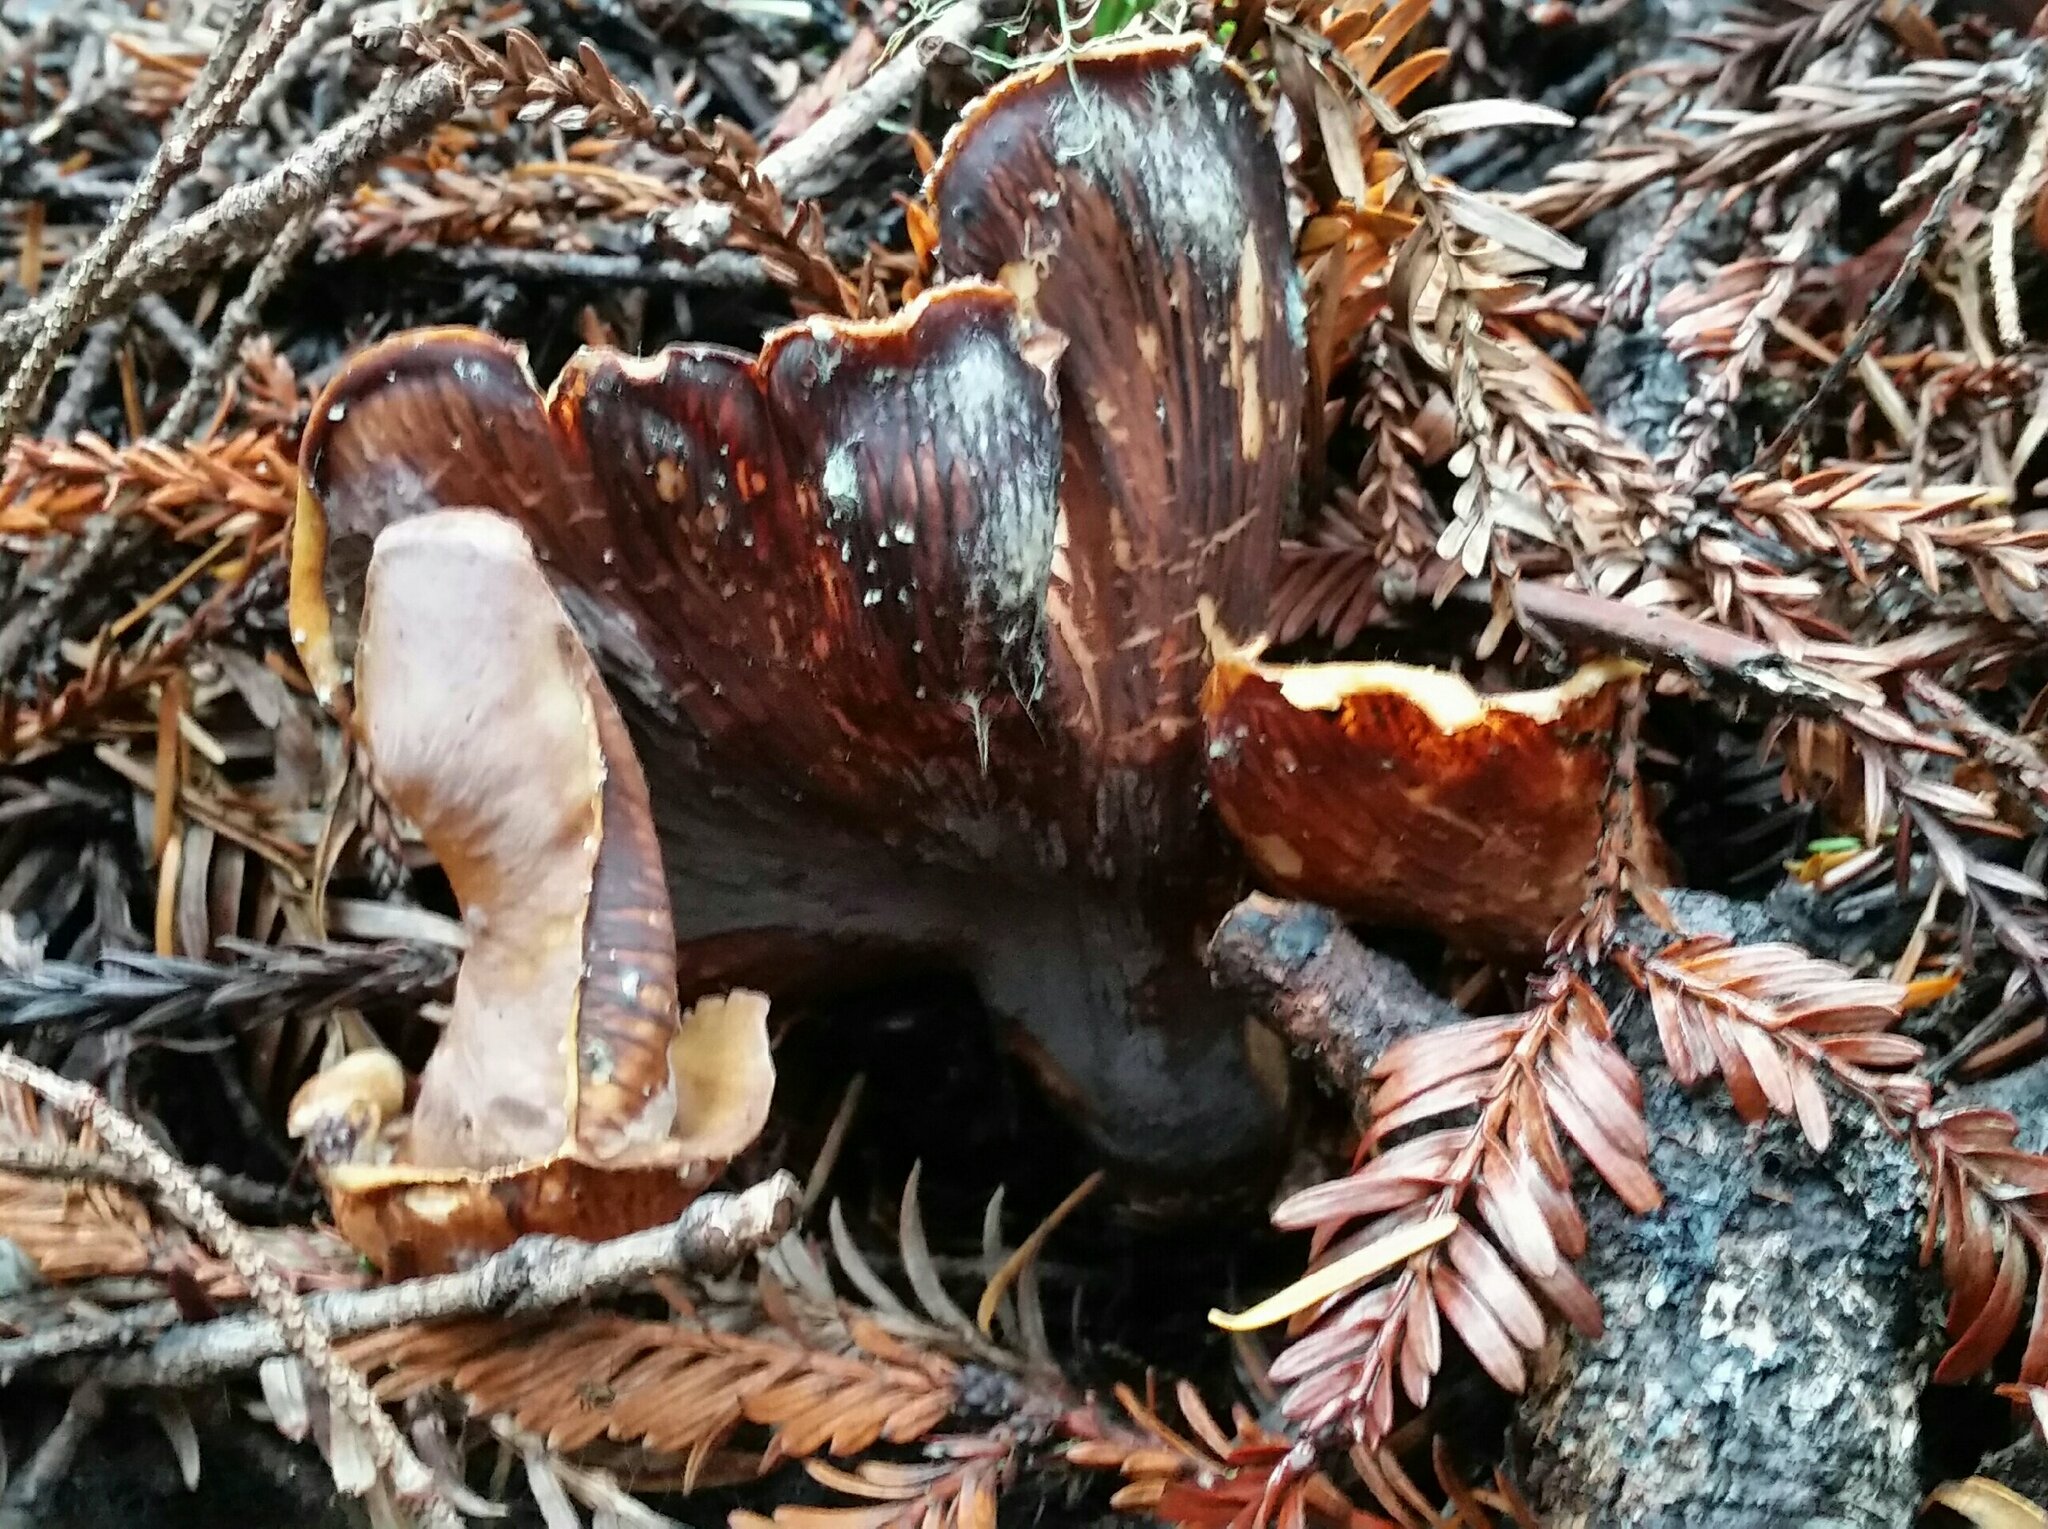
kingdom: Fungi
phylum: Basidiomycota
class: Agaricomycetes
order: Gomphales
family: Gomphaceae
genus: Gomphus
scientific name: Gomphus clavatus
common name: Pig's ear
